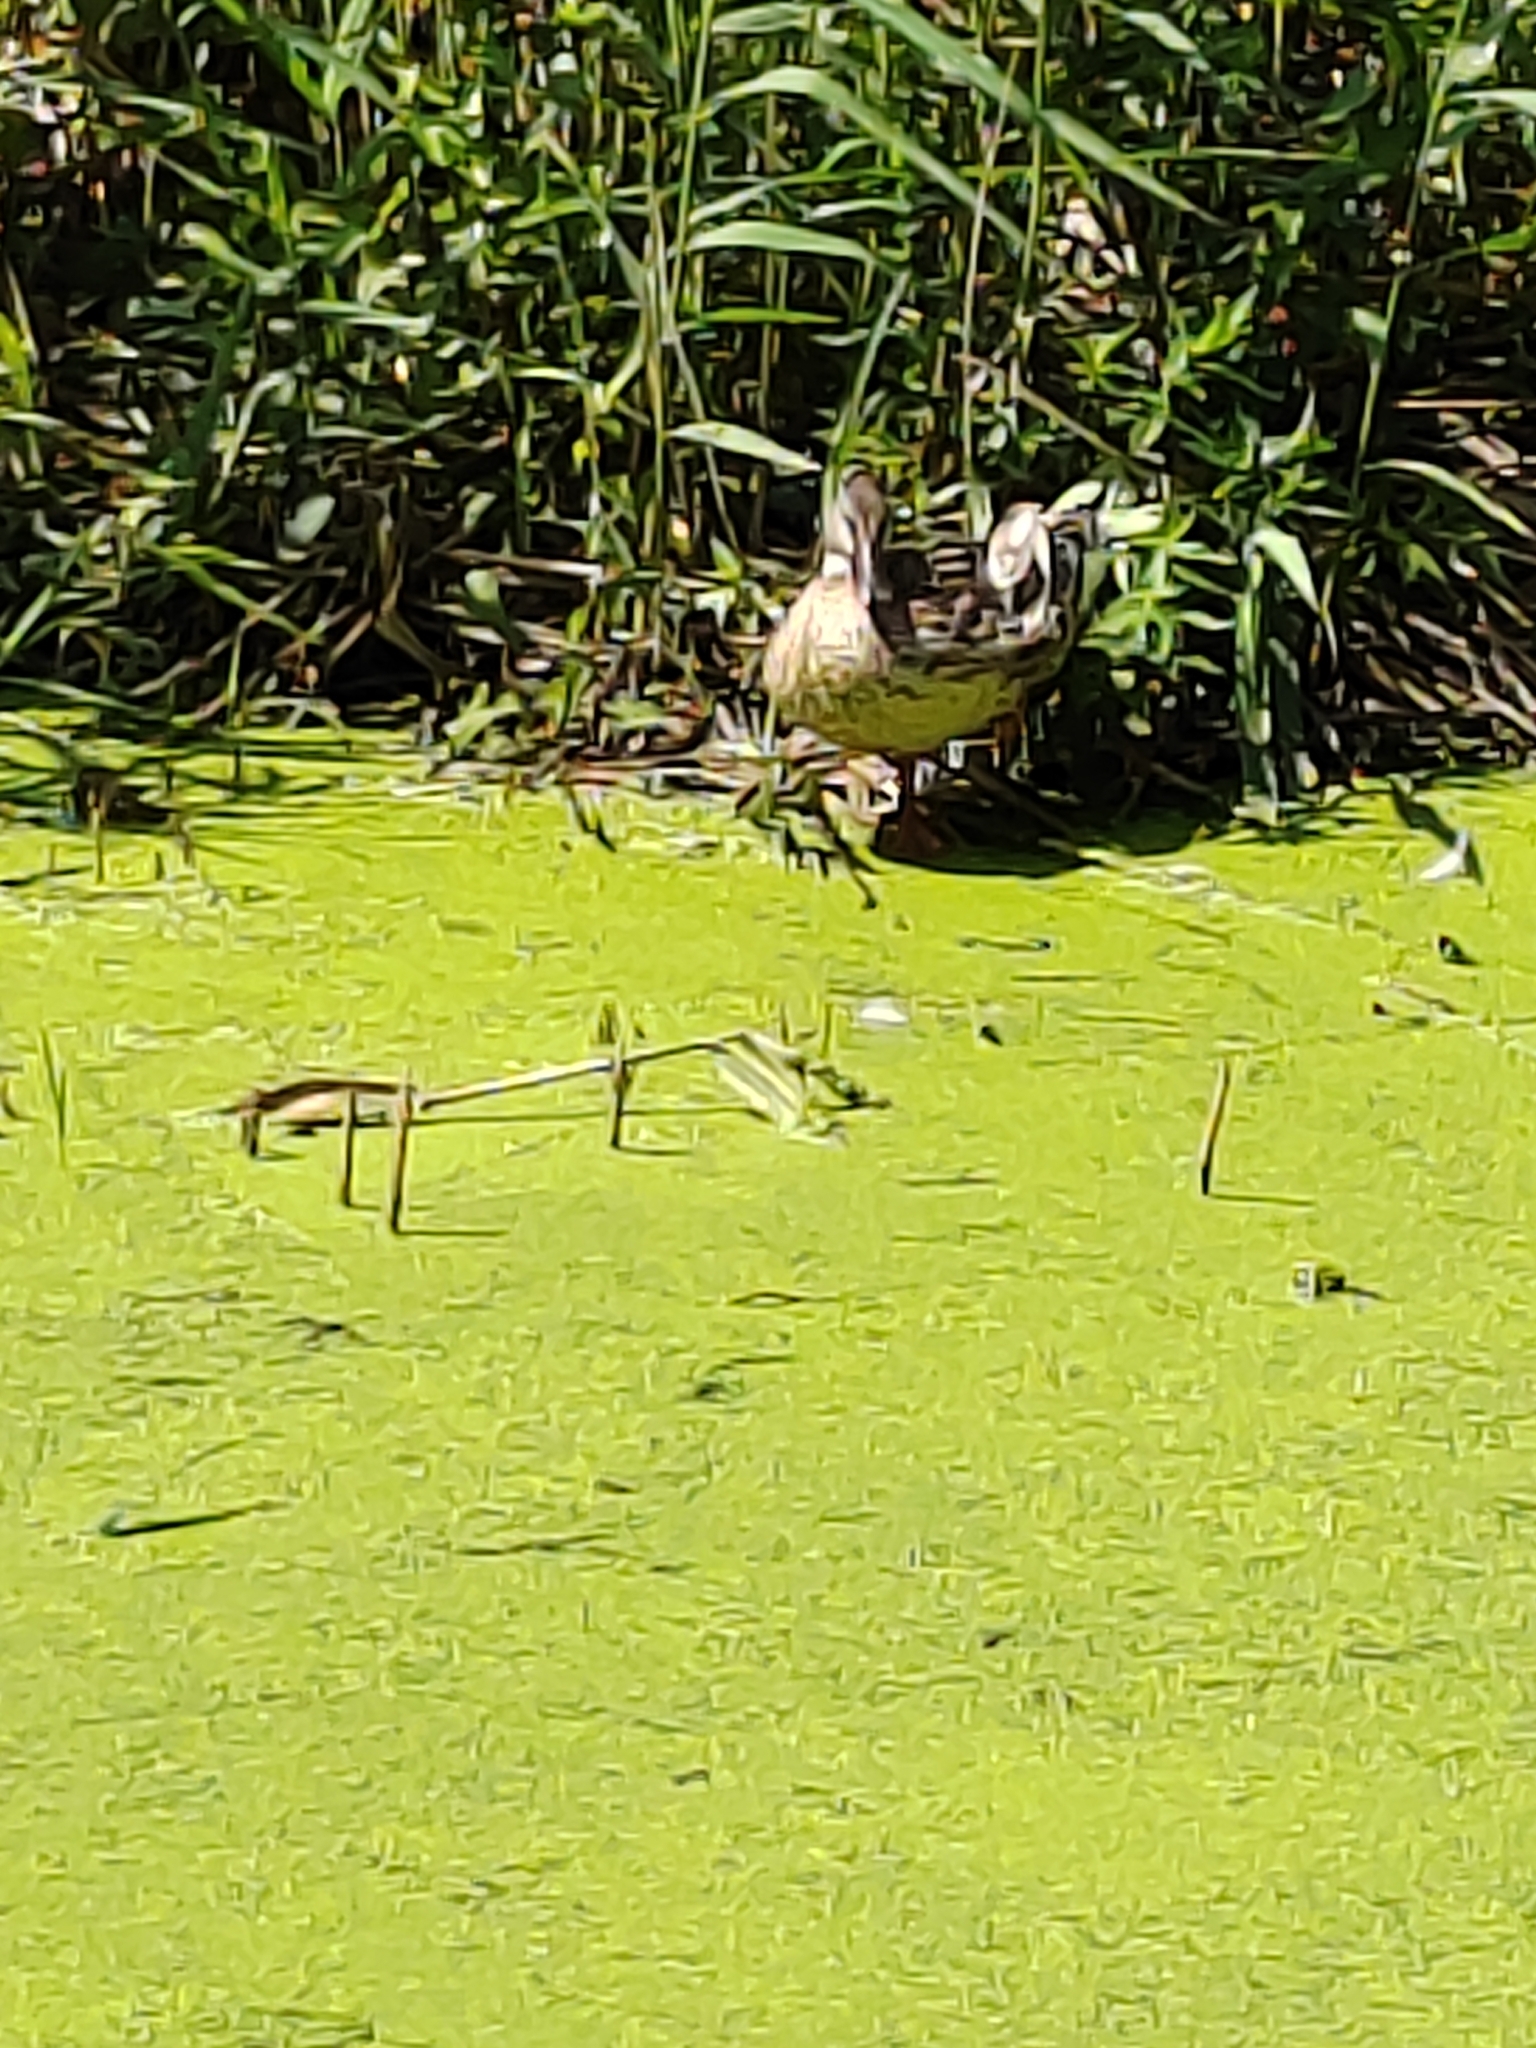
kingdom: Animalia
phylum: Chordata
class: Aves
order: Anseriformes
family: Anatidae
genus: Anas
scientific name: Anas platyrhynchos
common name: Mallard
